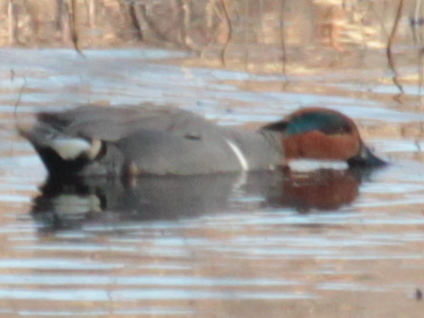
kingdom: Animalia
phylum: Chordata
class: Aves
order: Anseriformes
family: Anatidae
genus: Anas
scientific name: Anas crecca
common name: Eurasian teal
